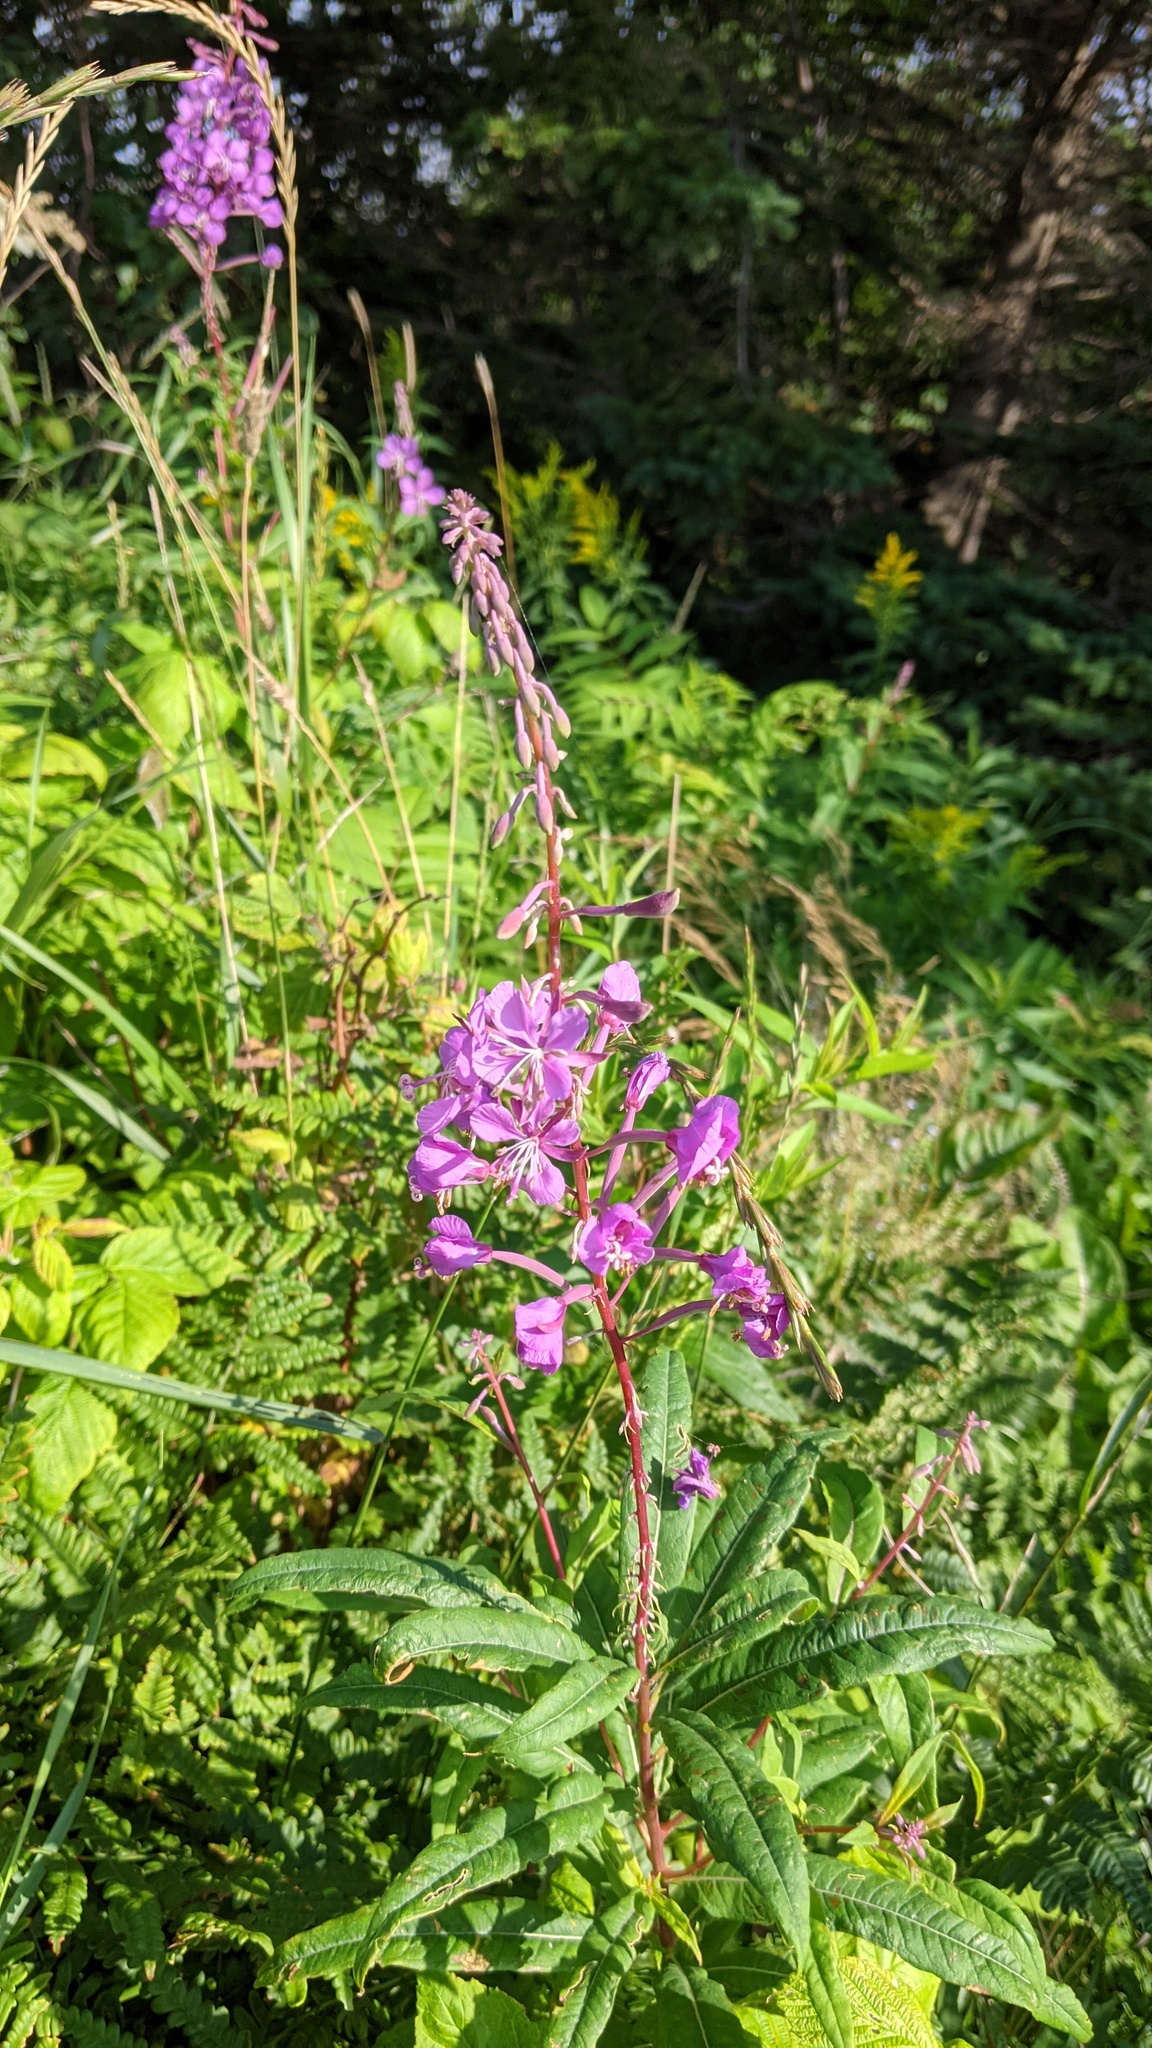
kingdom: Plantae
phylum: Tracheophyta
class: Magnoliopsida
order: Myrtales
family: Onagraceae
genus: Chamaenerion
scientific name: Chamaenerion angustifolium
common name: Fireweed
